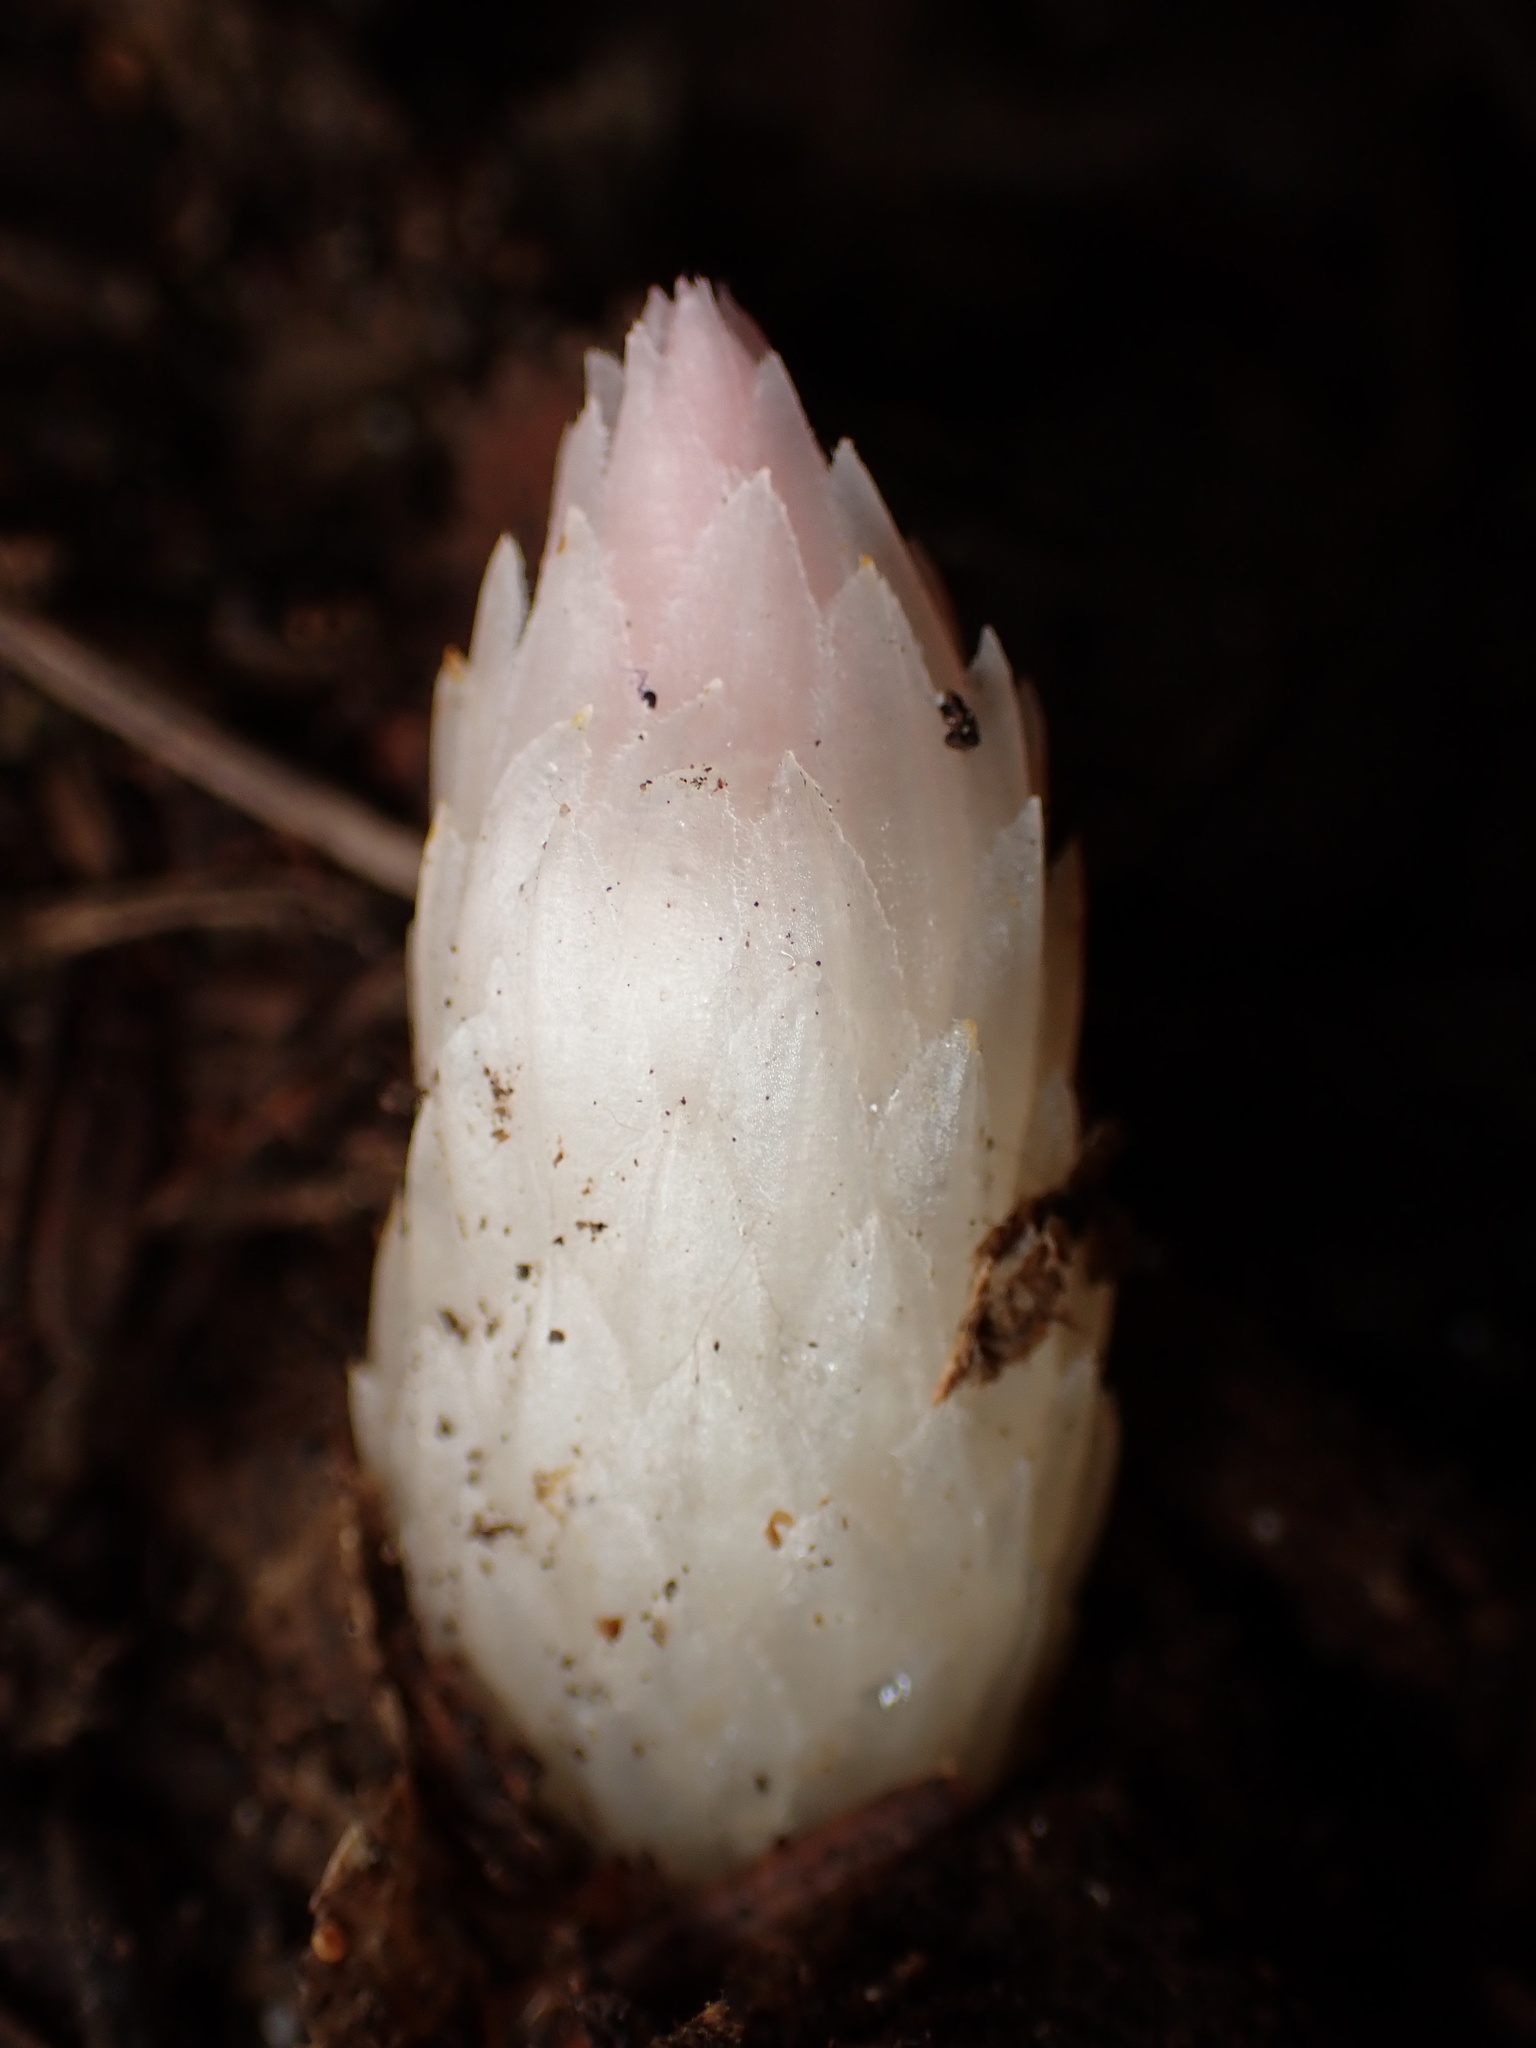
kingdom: Plantae
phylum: Tracheophyta
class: Magnoliopsida
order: Ericales
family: Ericaceae
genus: Hemitomes
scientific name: Hemitomes congestum
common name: Cone plant
